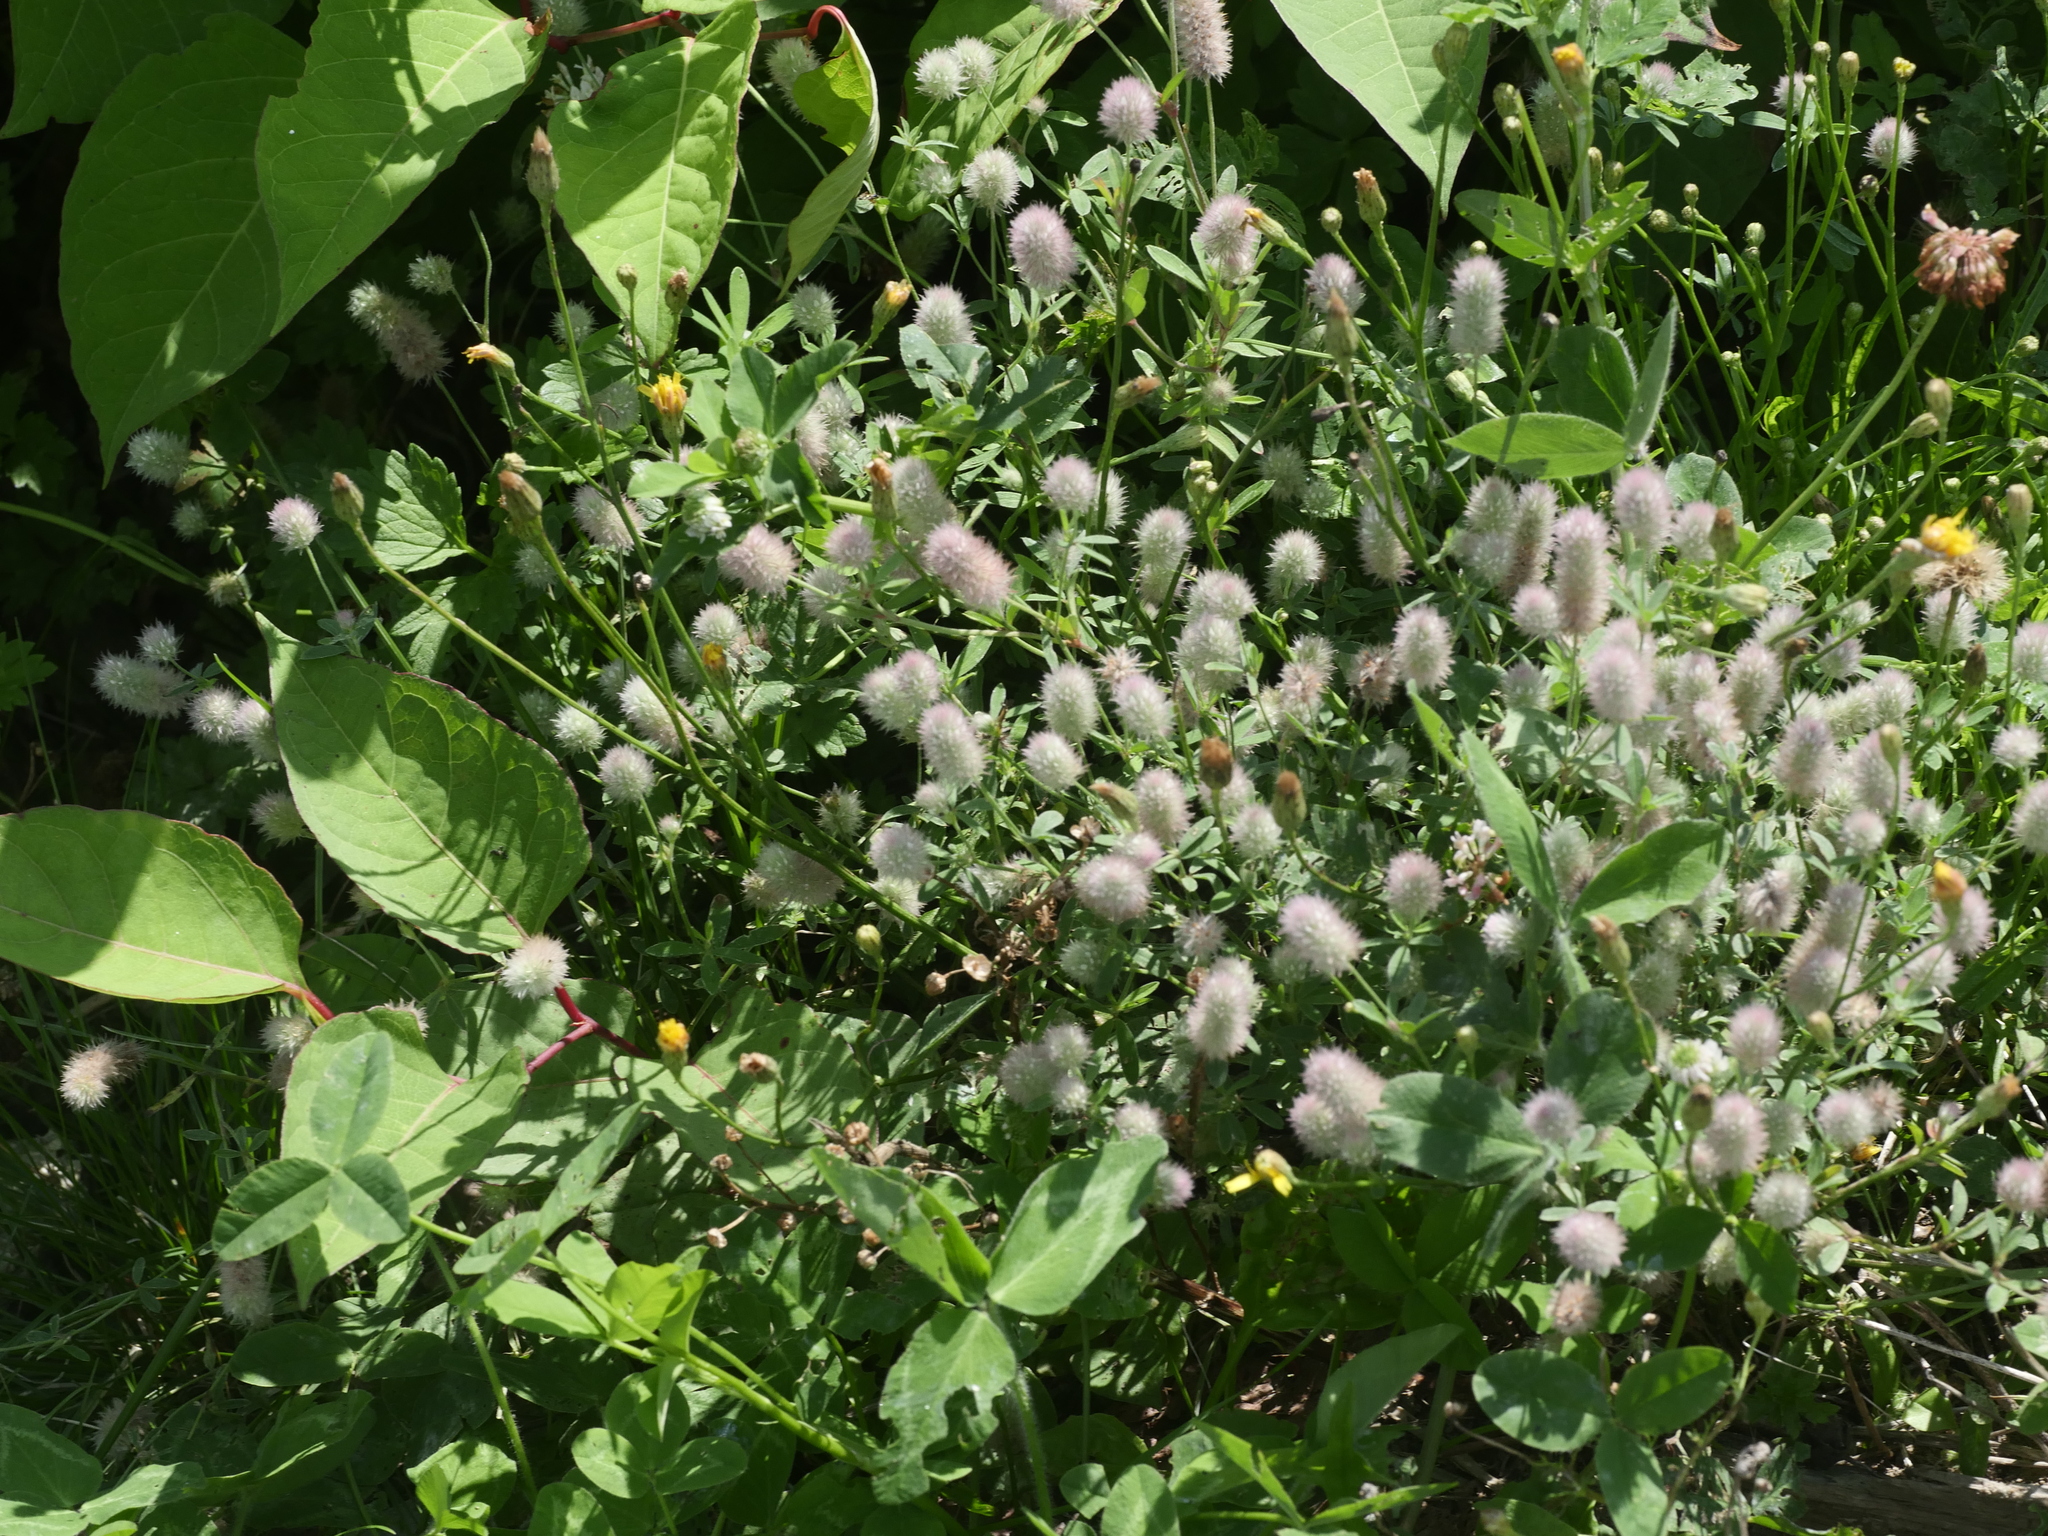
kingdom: Plantae
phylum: Tracheophyta
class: Magnoliopsida
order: Fabales
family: Fabaceae
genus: Trifolium
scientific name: Trifolium arvense
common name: Hare's-foot clover
